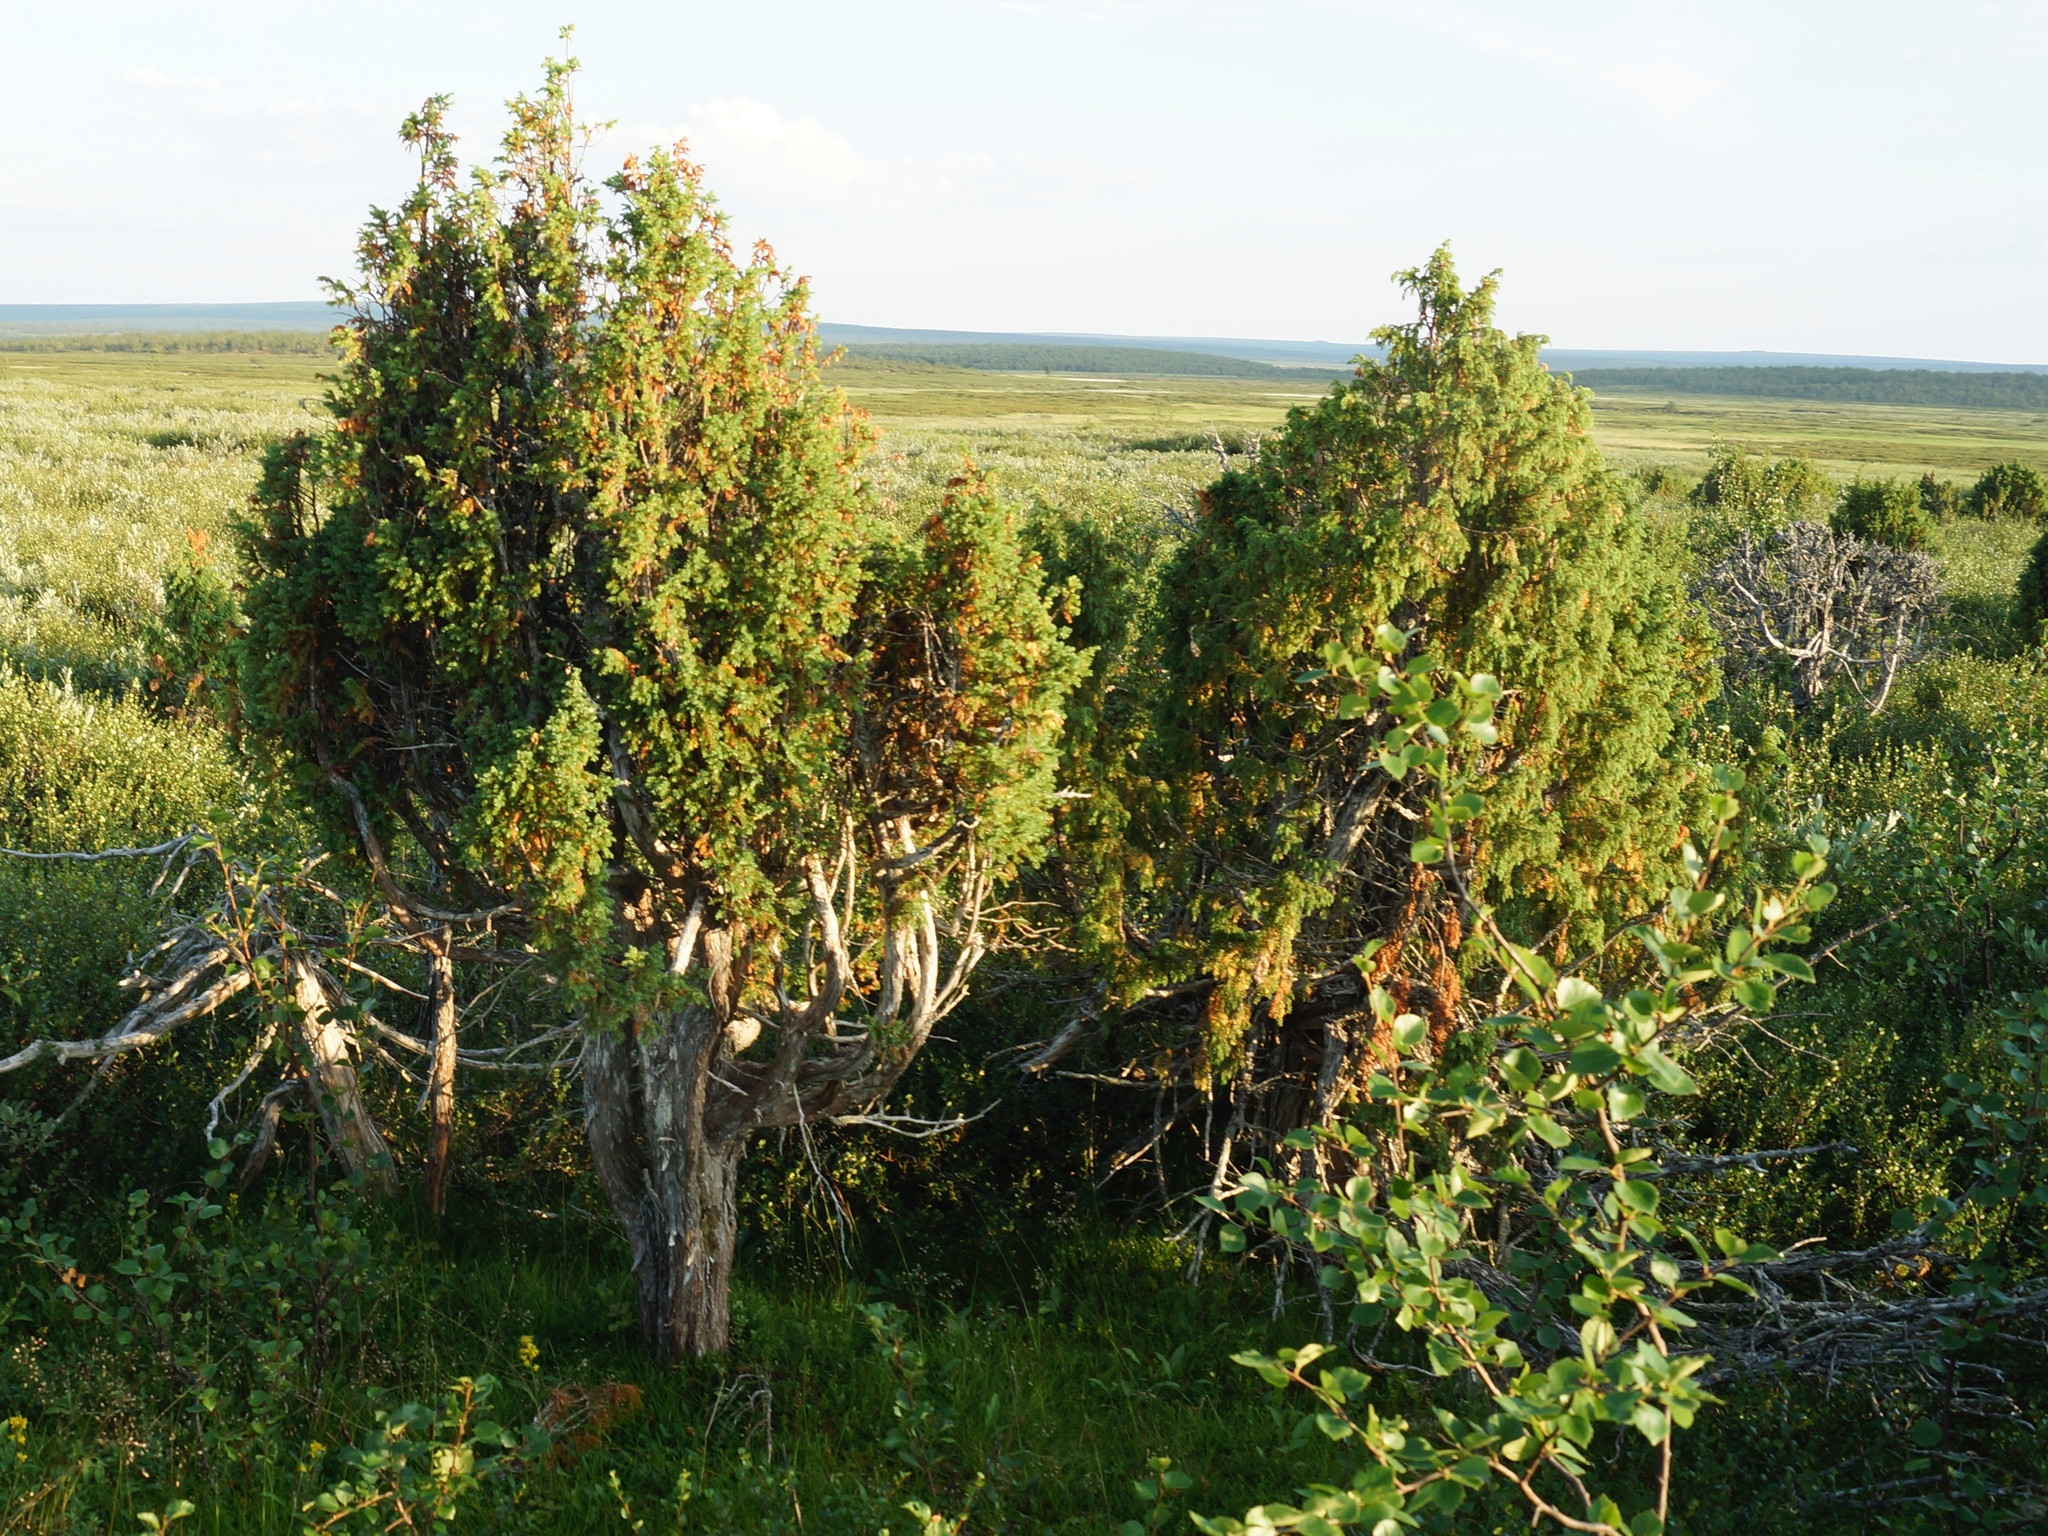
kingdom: Plantae
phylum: Tracheophyta
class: Pinopsida
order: Pinales
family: Cupressaceae
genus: Juniperus
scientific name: Juniperus communis
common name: Common juniper
